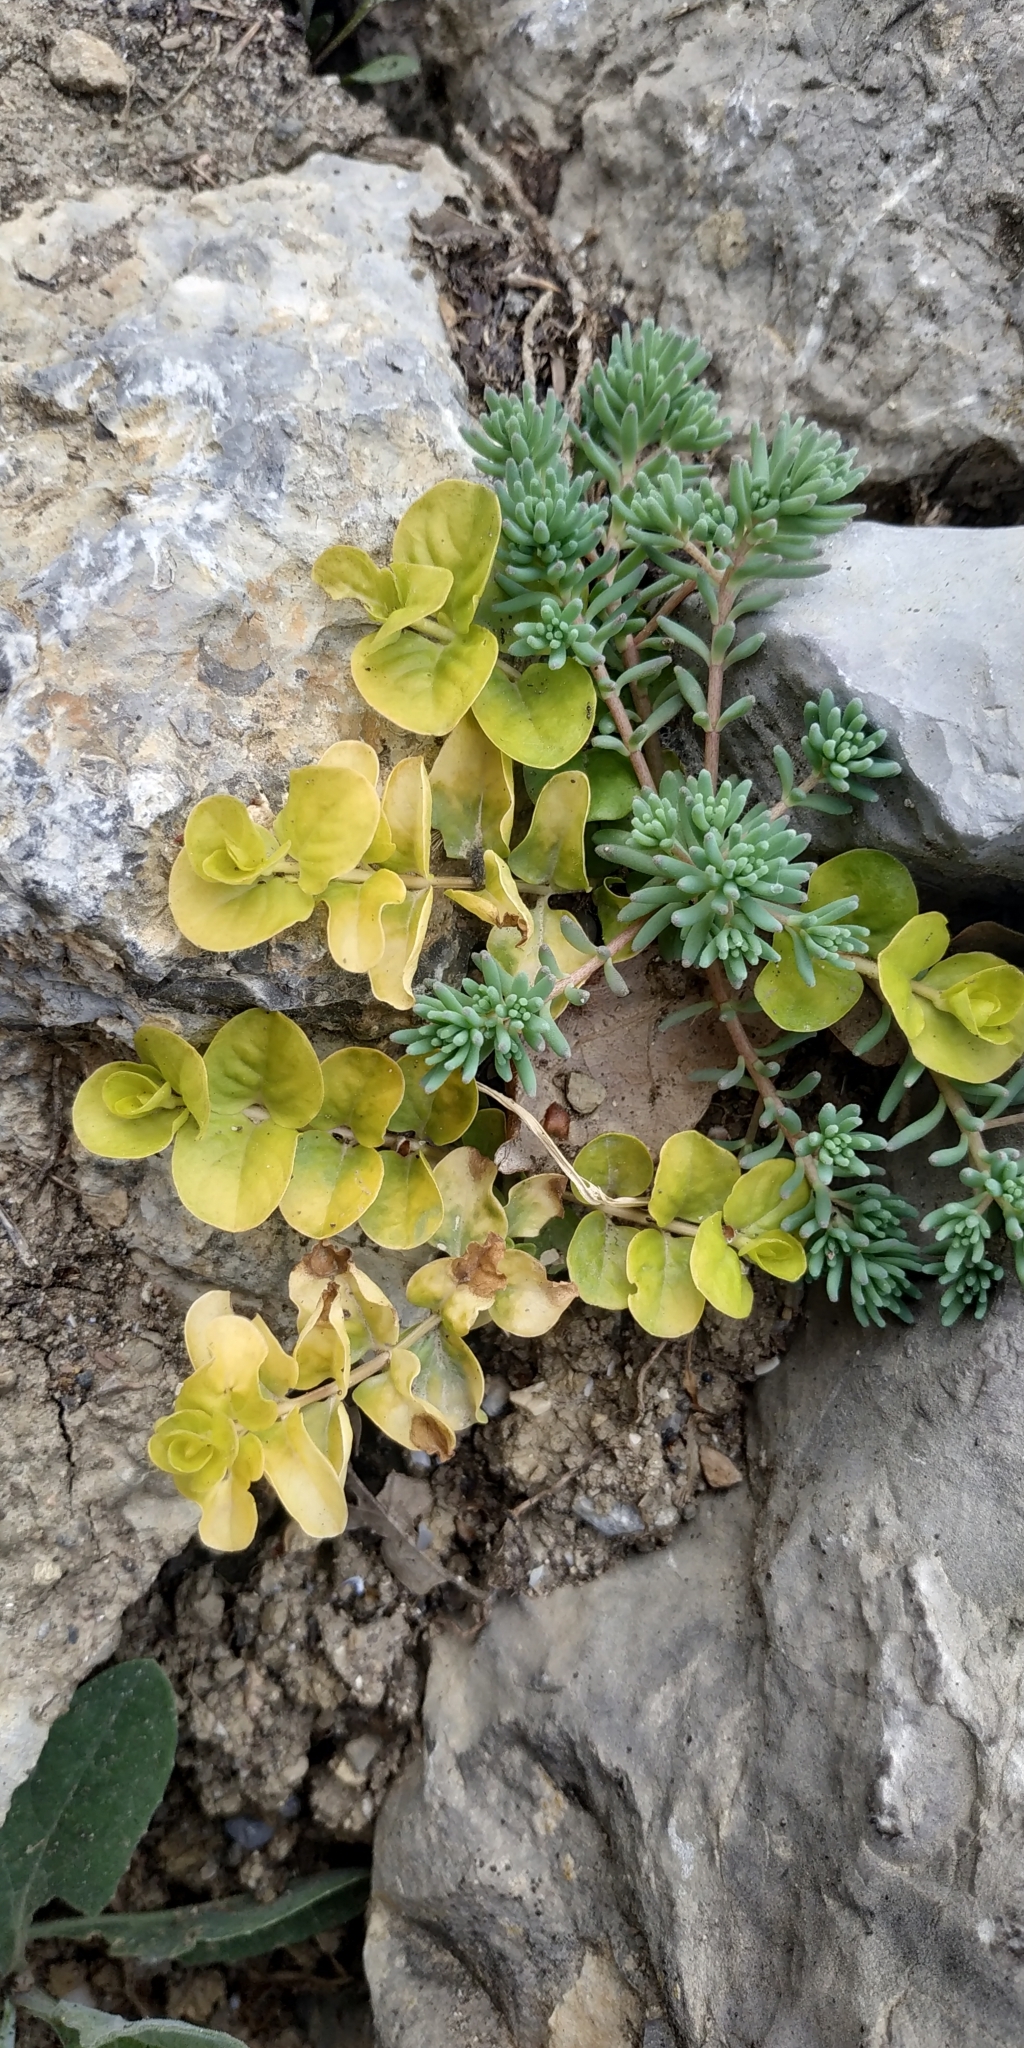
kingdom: Plantae
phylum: Tracheophyta
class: Magnoliopsida
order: Ericales
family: Primulaceae
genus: Lysimachia
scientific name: Lysimachia nummularia
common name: Moneywort
